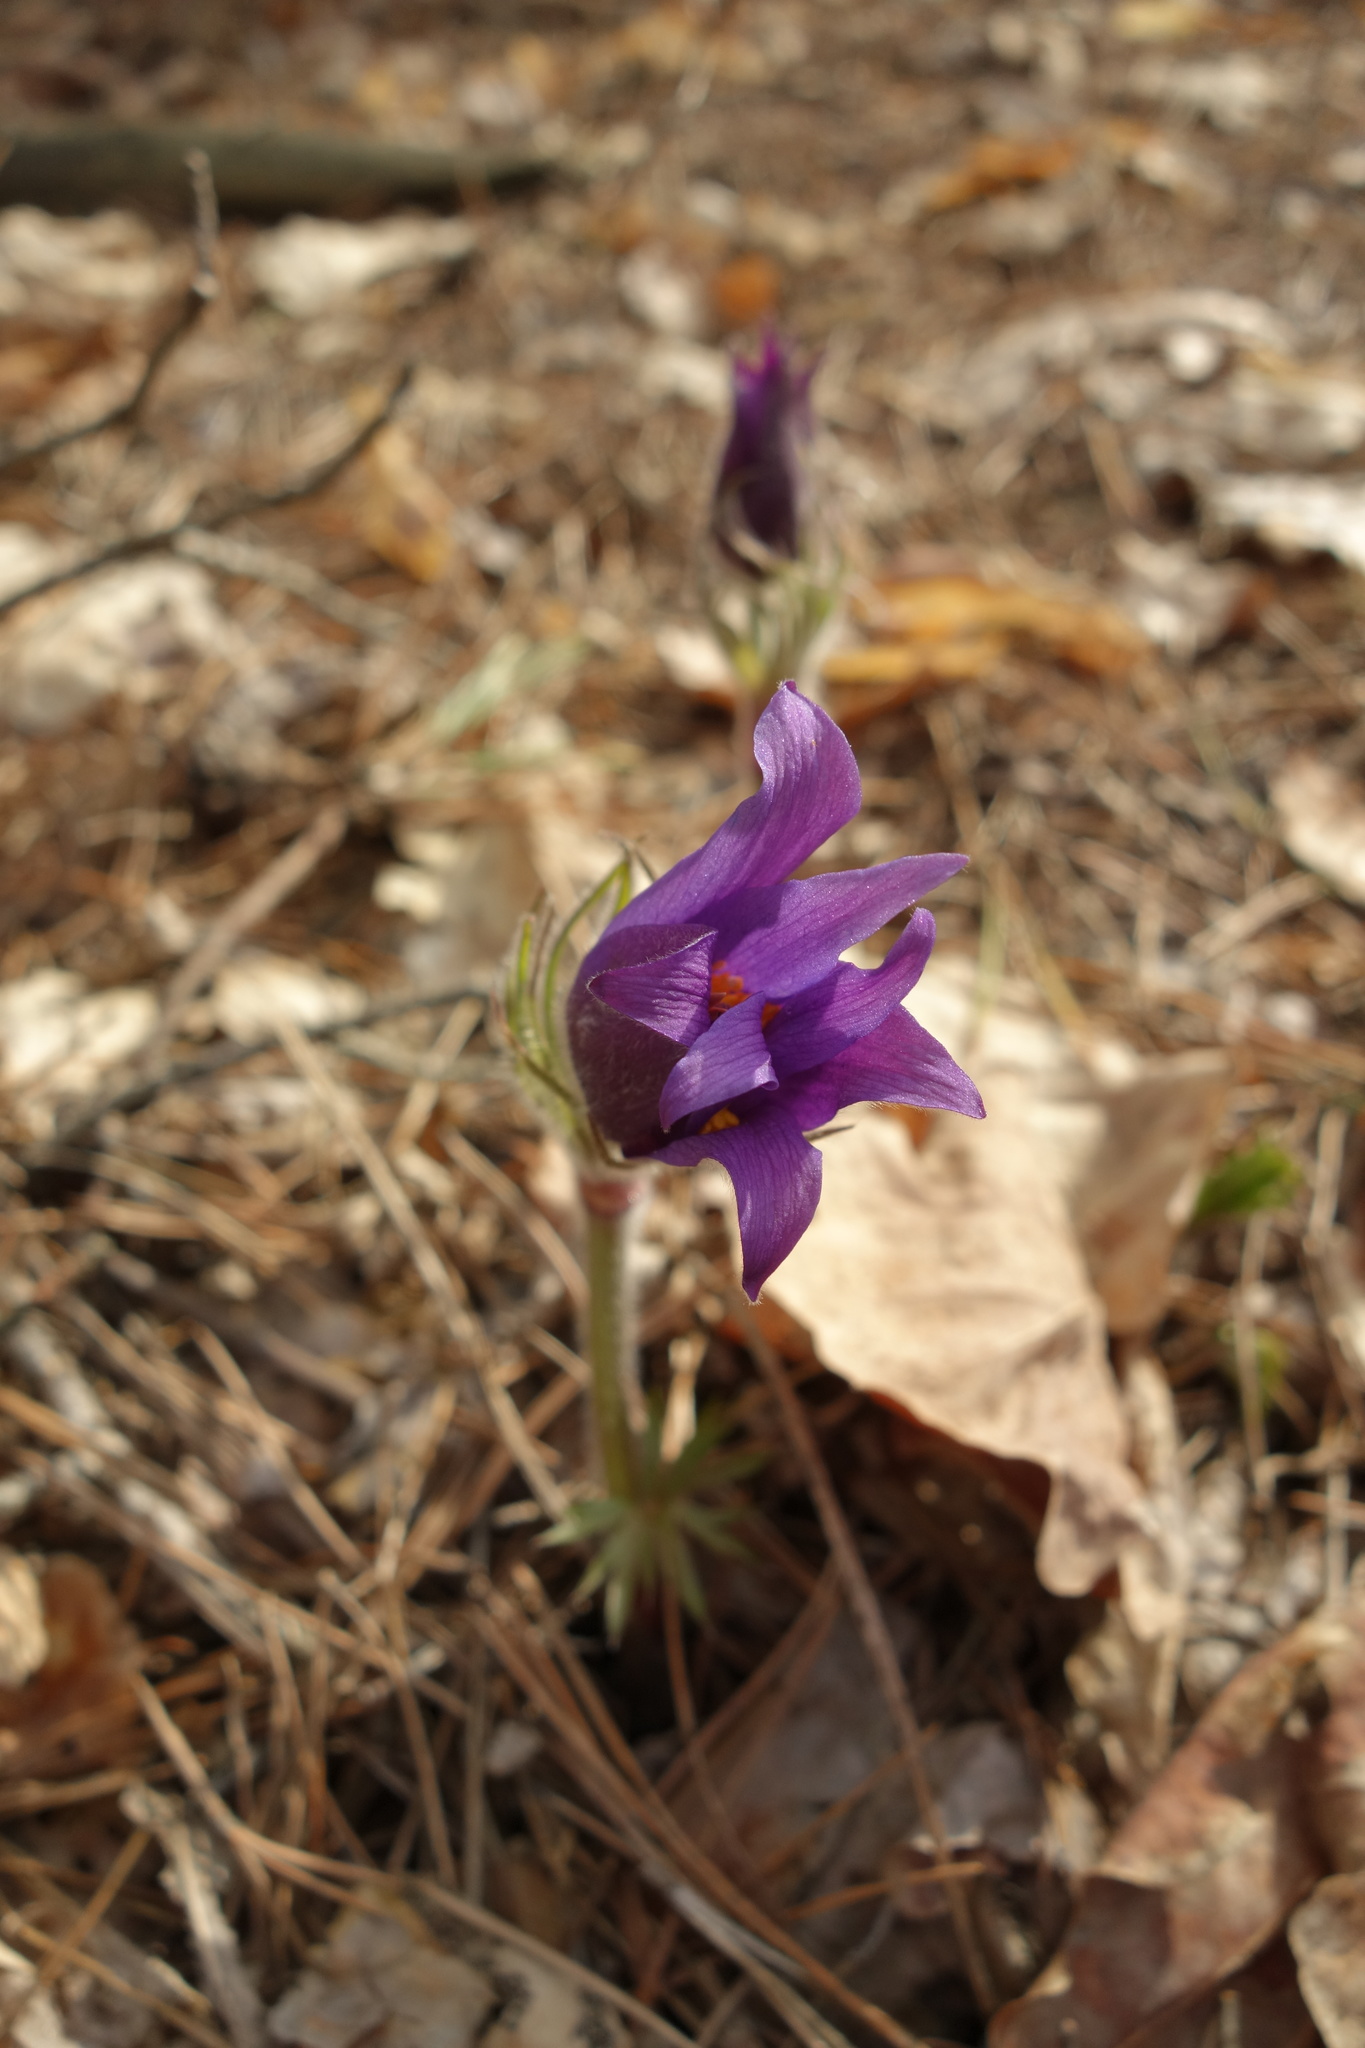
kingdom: Plantae
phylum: Tracheophyta
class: Magnoliopsida
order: Ranunculales
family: Ranunculaceae
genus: Pulsatilla
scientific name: Pulsatilla patens
